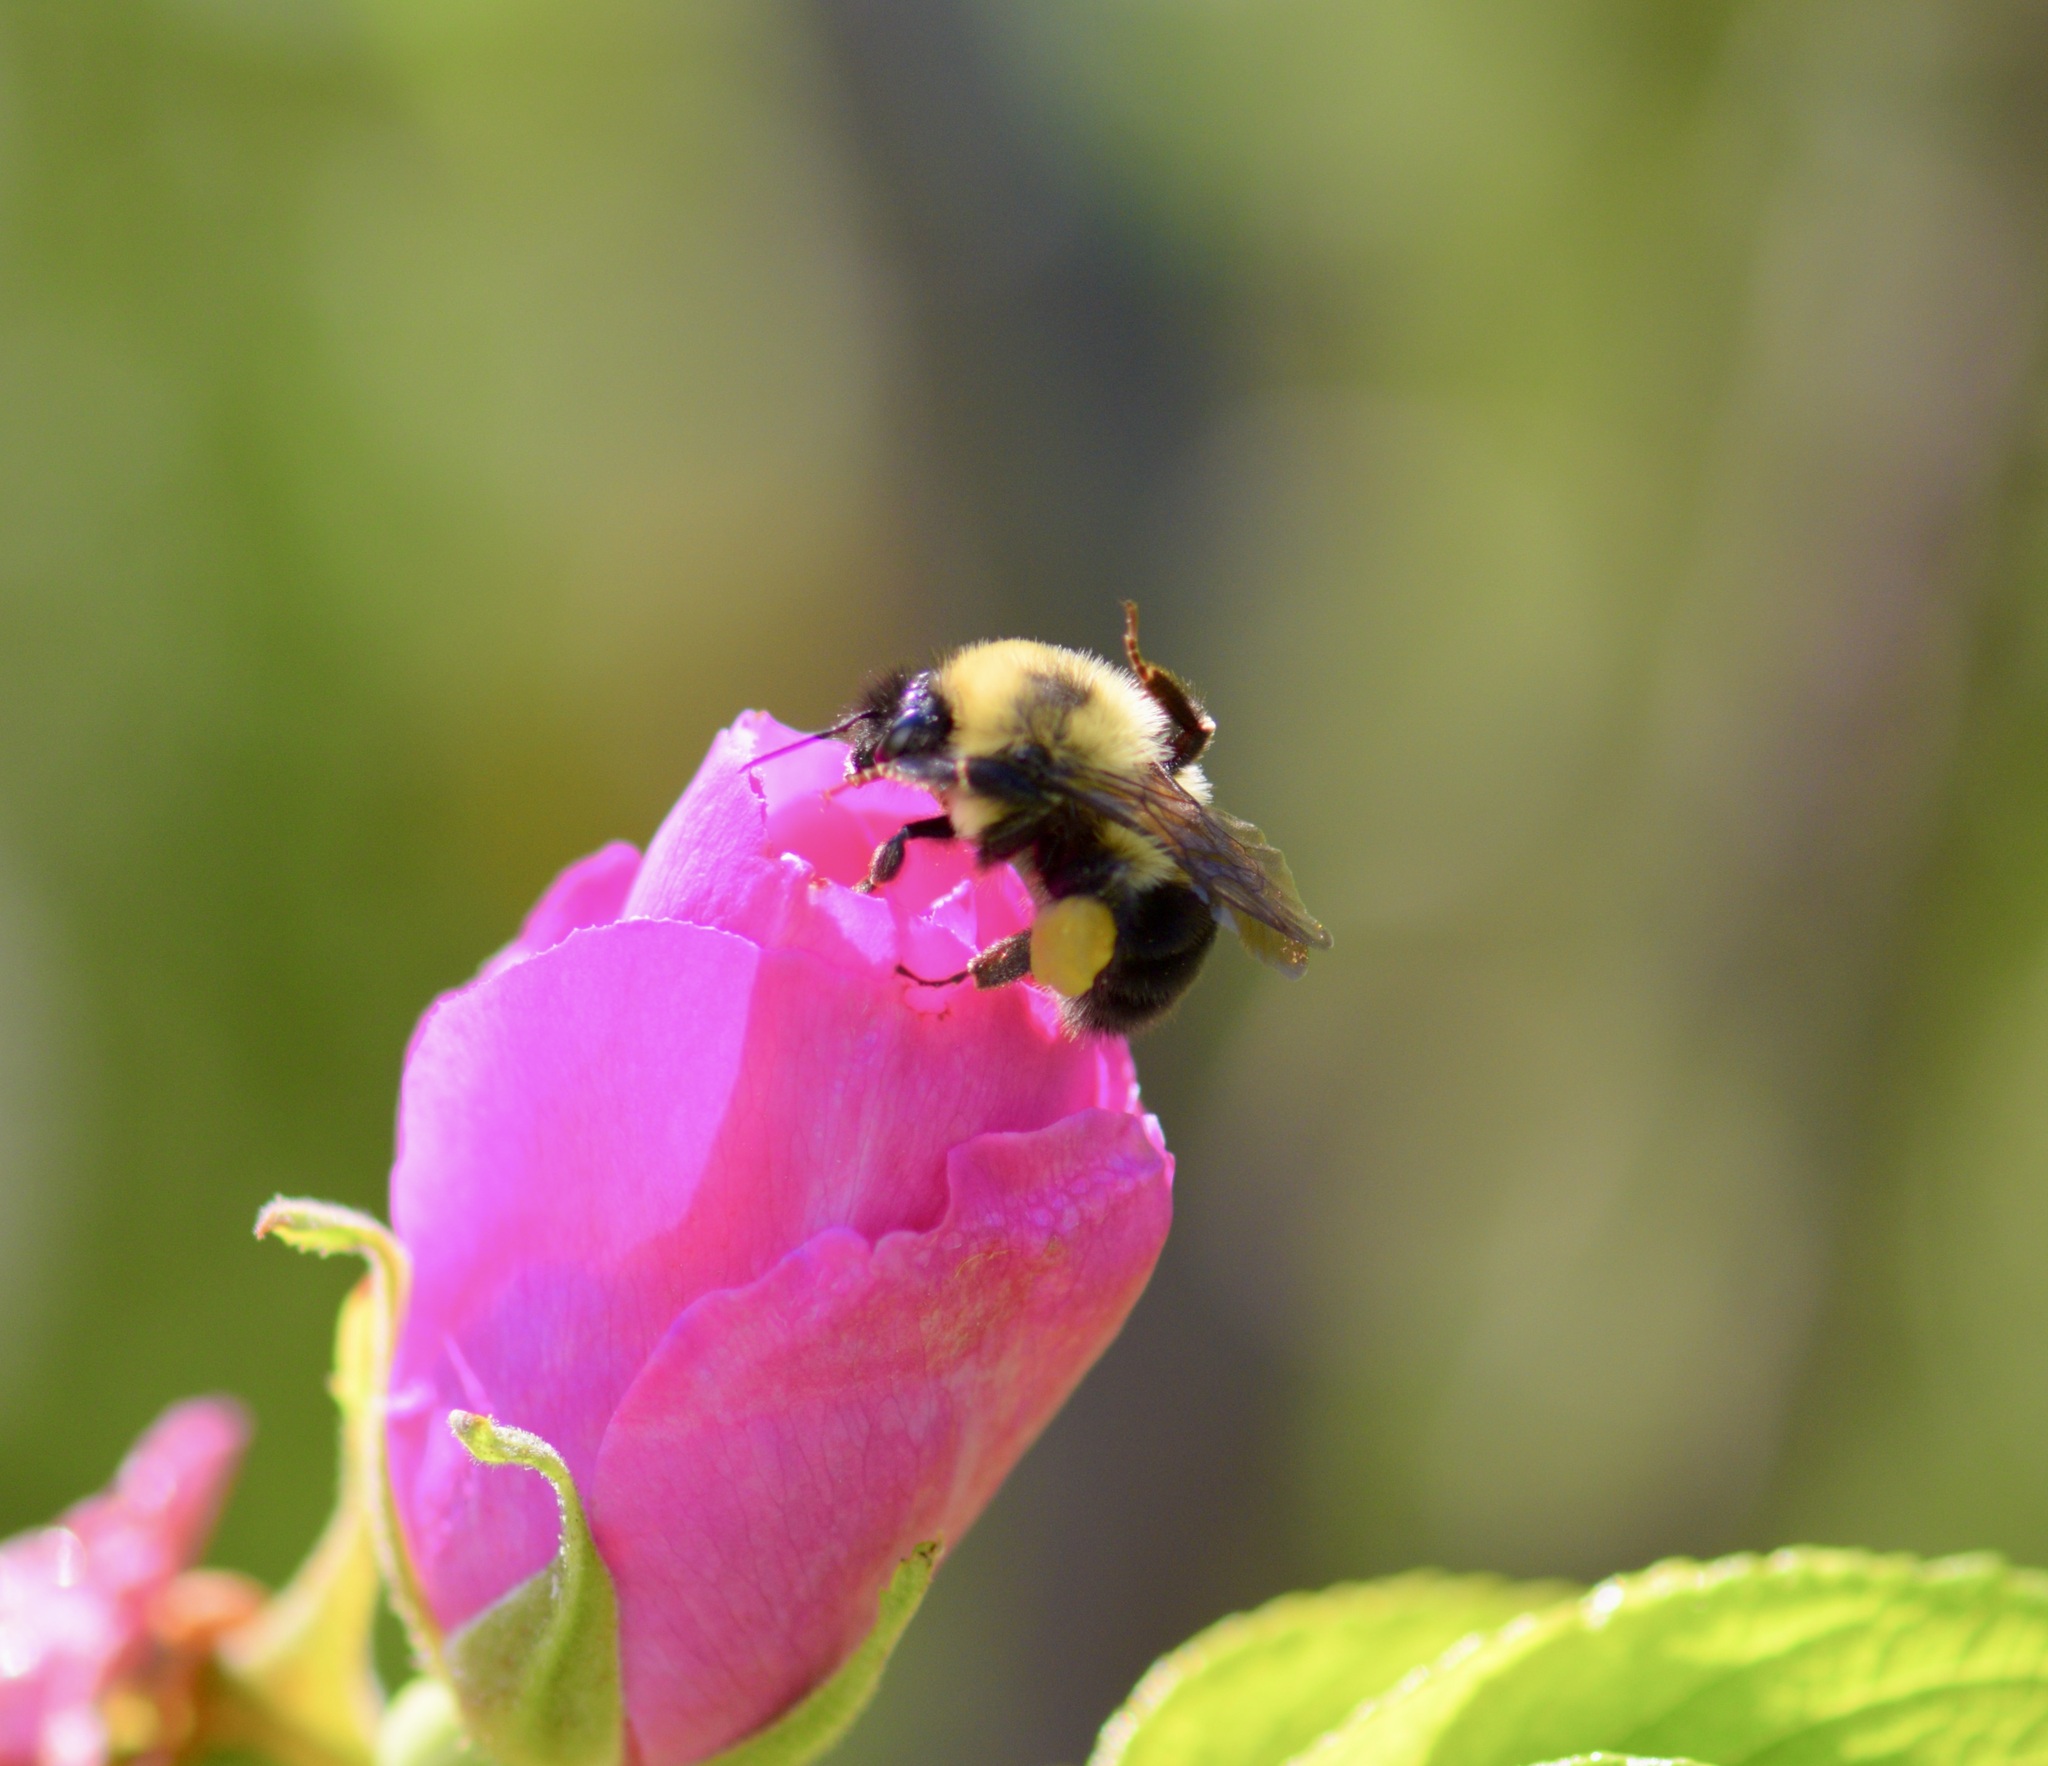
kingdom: Animalia
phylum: Arthropoda
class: Insecta
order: Hymenoptera
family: Apidae
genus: Bombus
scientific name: Bombus bimaculatus
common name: Two-spotted bumble bee
